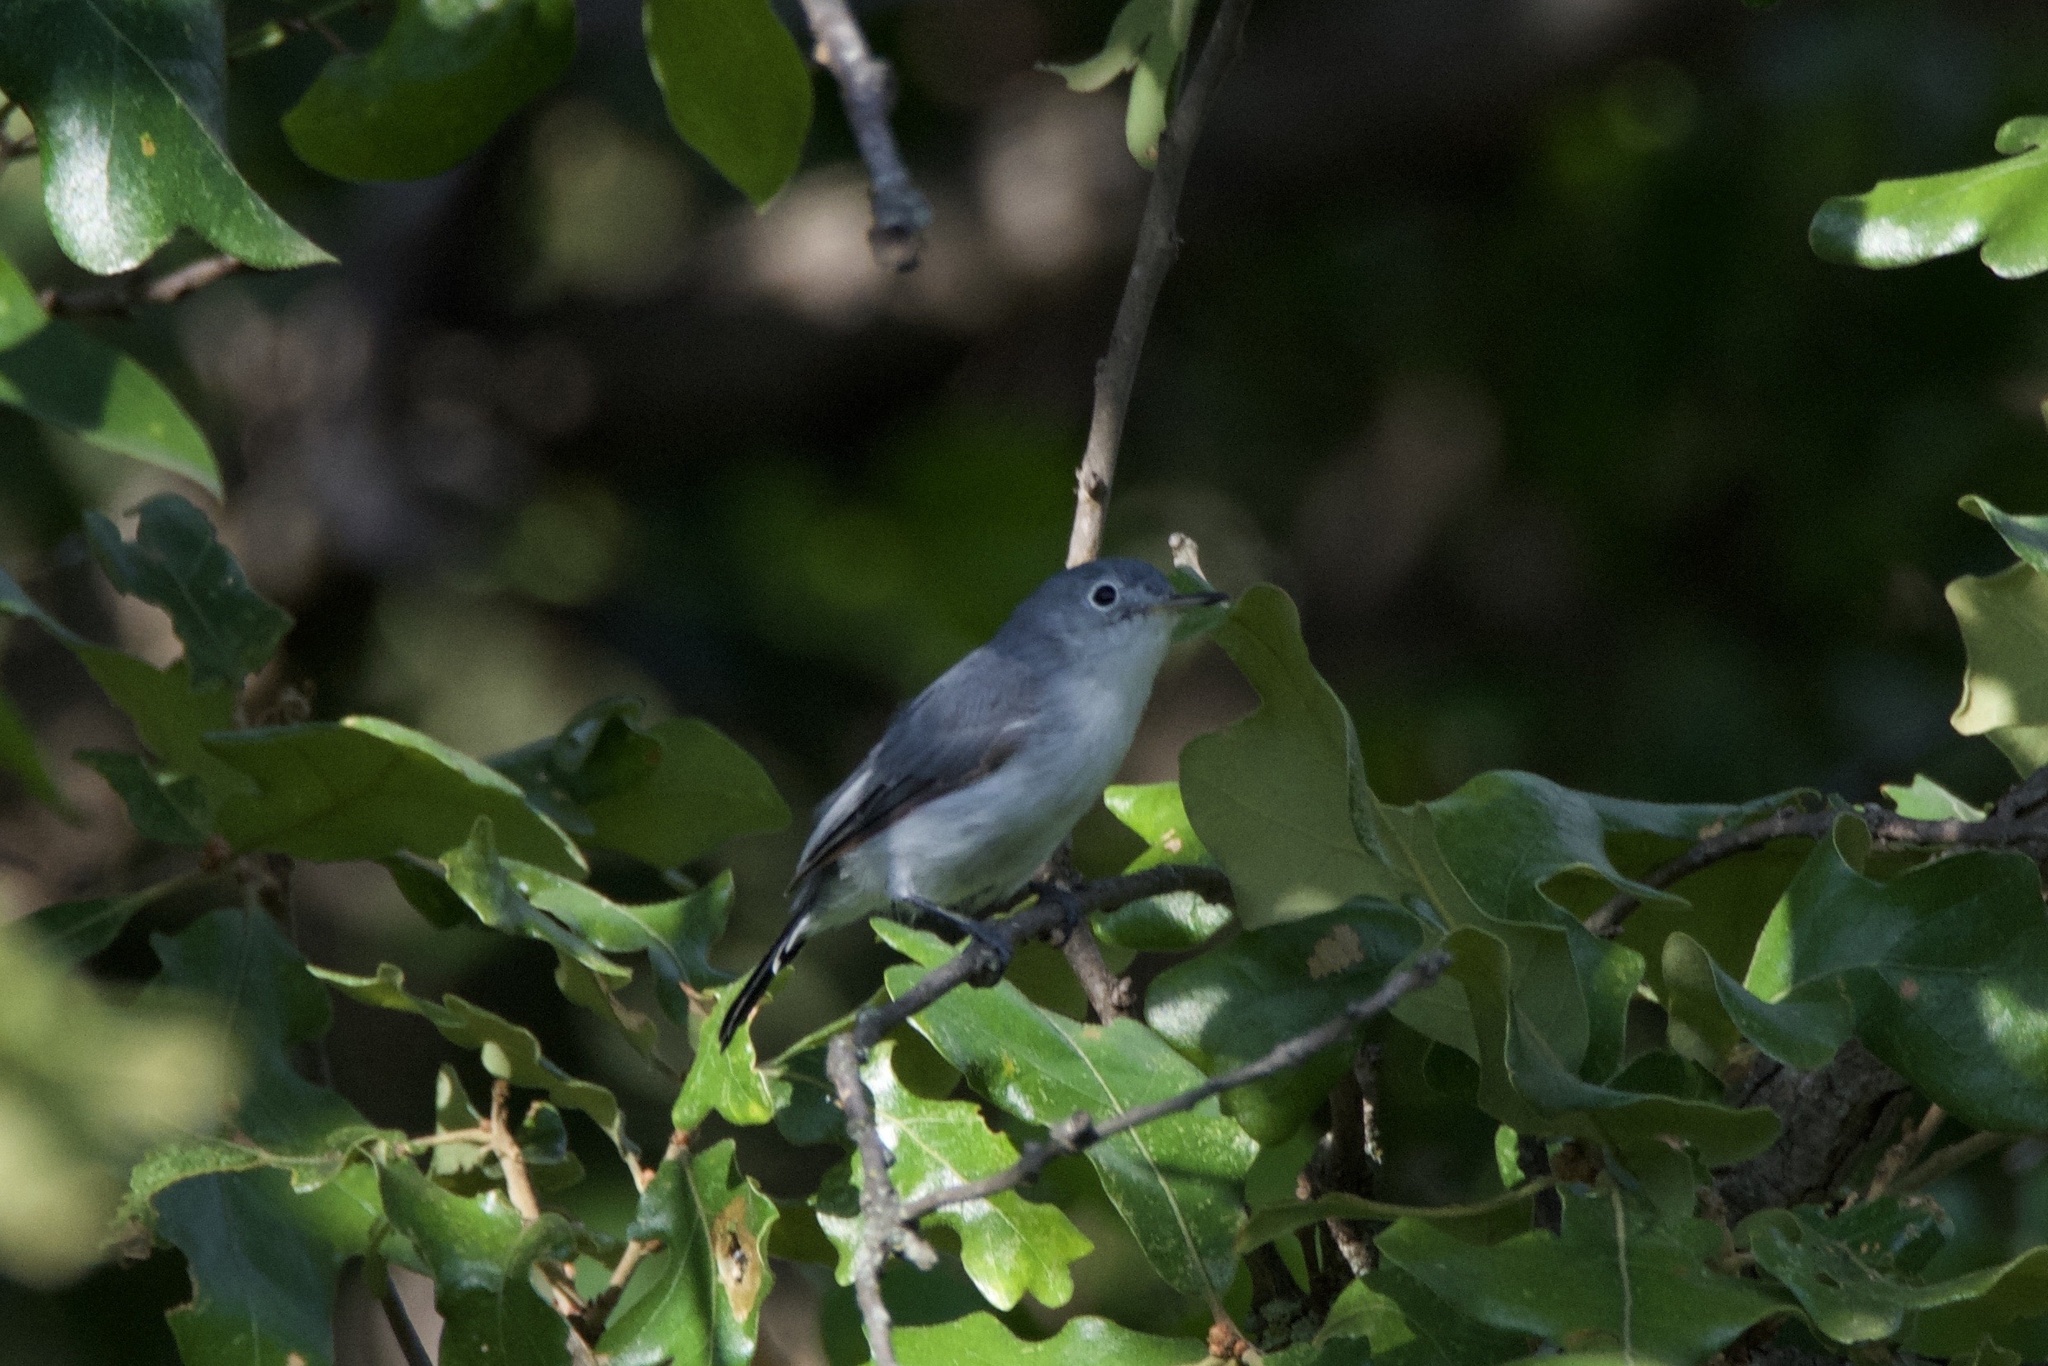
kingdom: Animalia
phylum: Chordata
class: Aves
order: Passeriformes
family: Polioptilidae
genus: Polioptila
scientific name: Polioptila caerulea
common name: Blue-gray gnatcatcher
